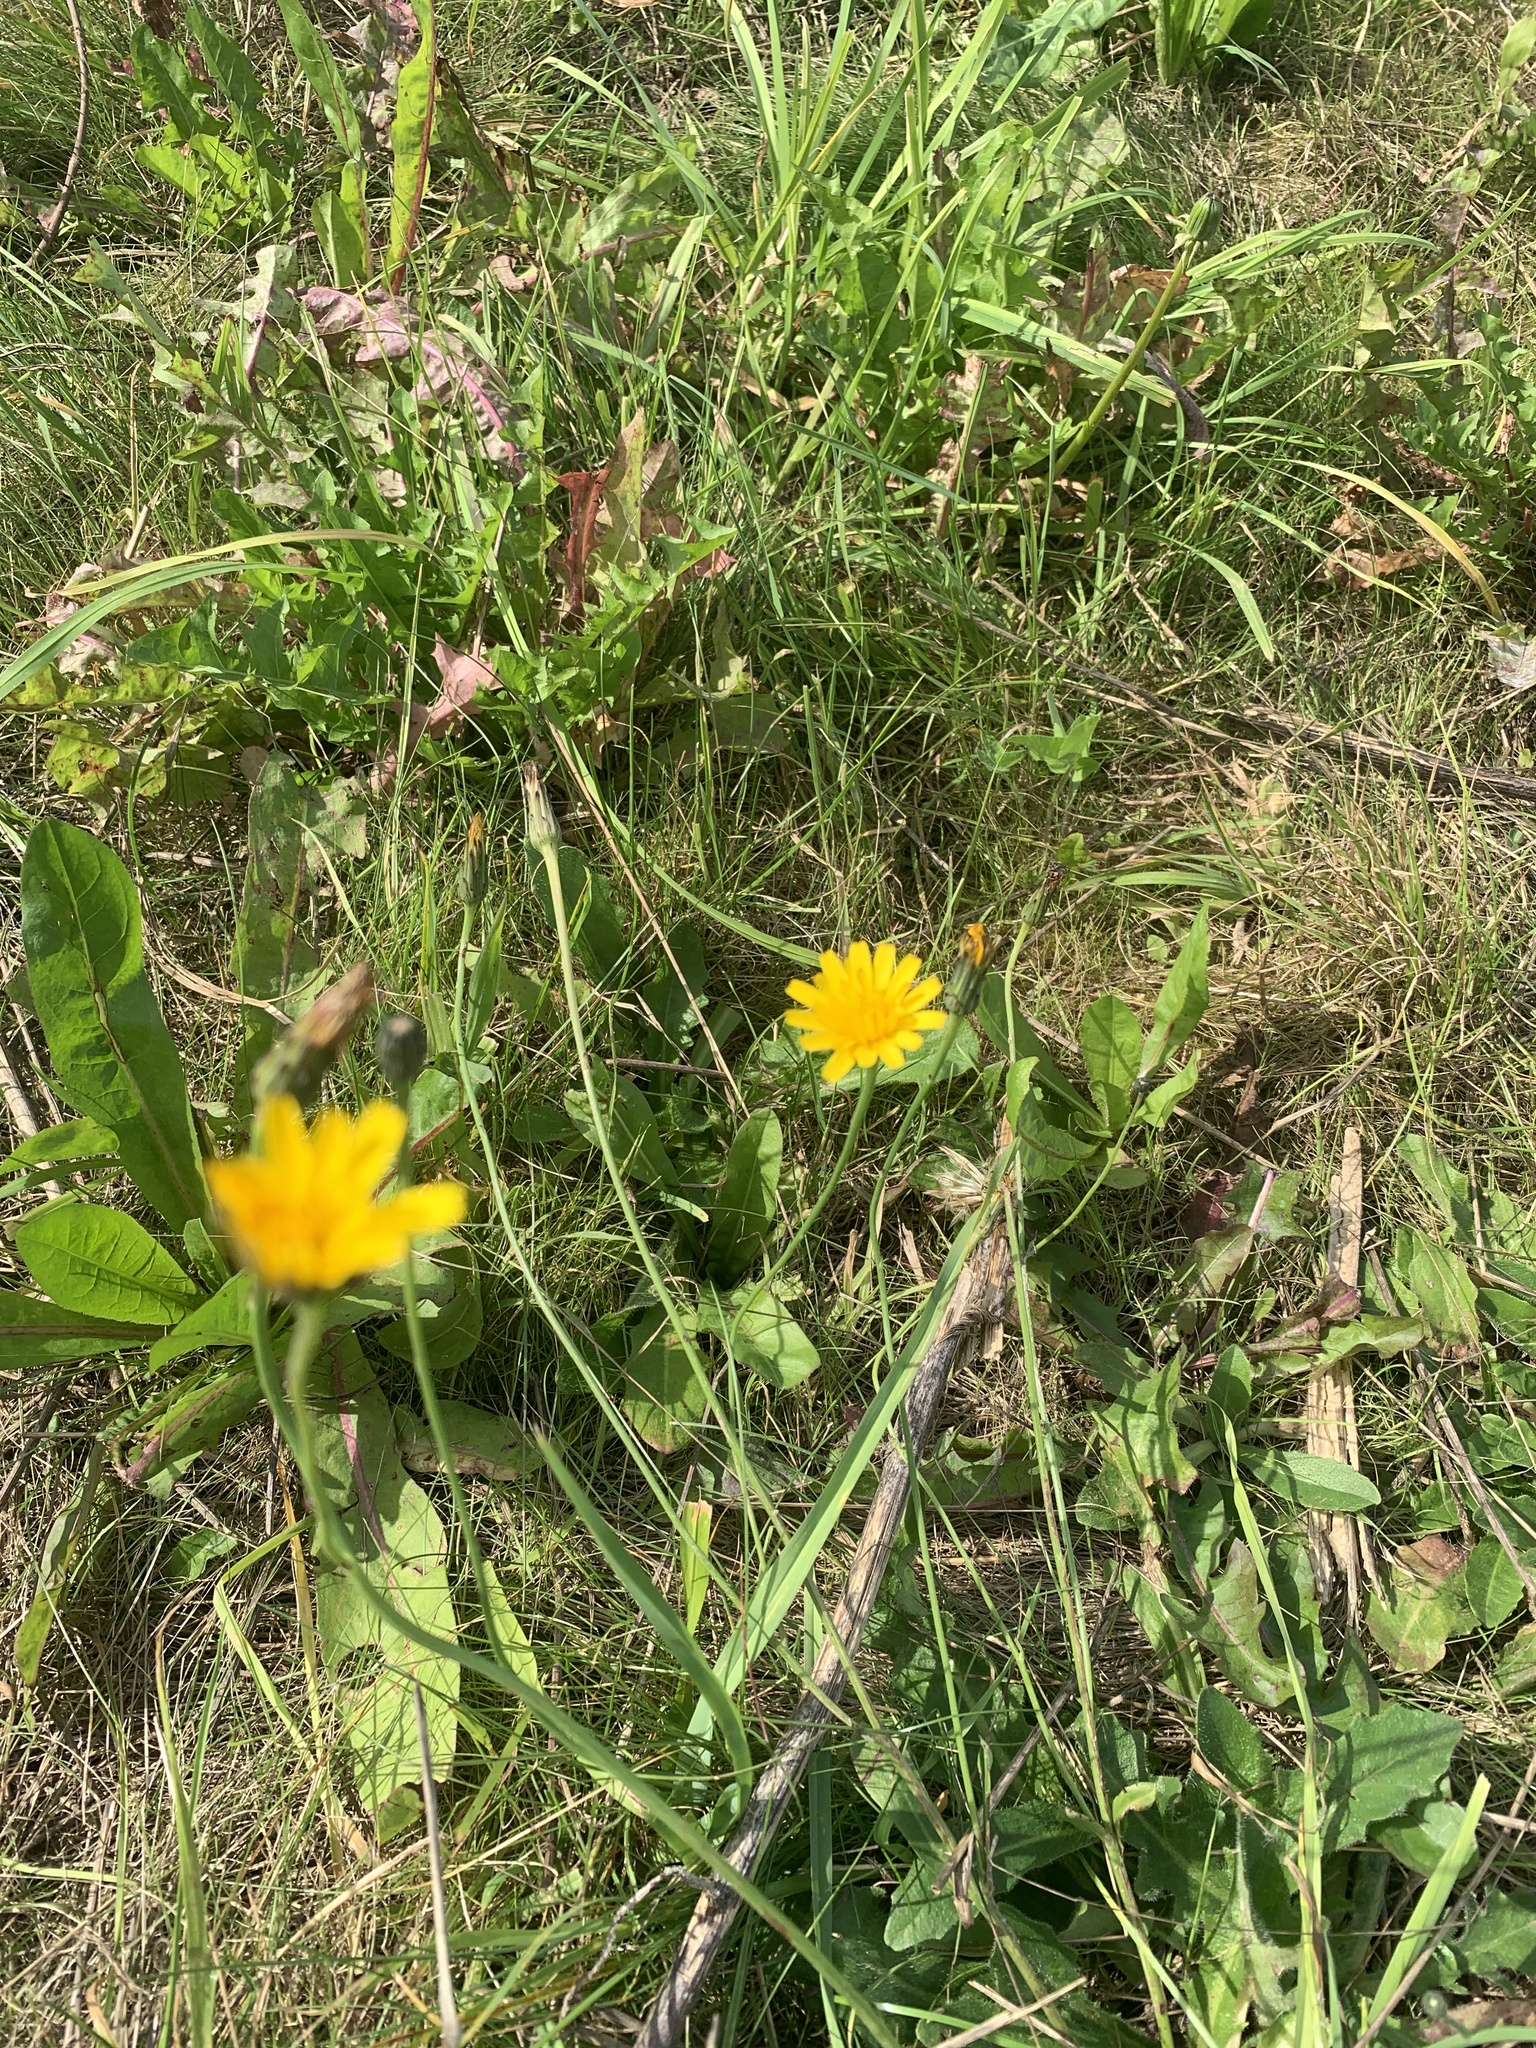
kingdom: Plantae
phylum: Tracheophyta
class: Magnoliopsida
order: Asterales
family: Asteraceae
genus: Scorzoneroides
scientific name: Scorzoneroides autumnalis
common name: Autumn hawkbit
